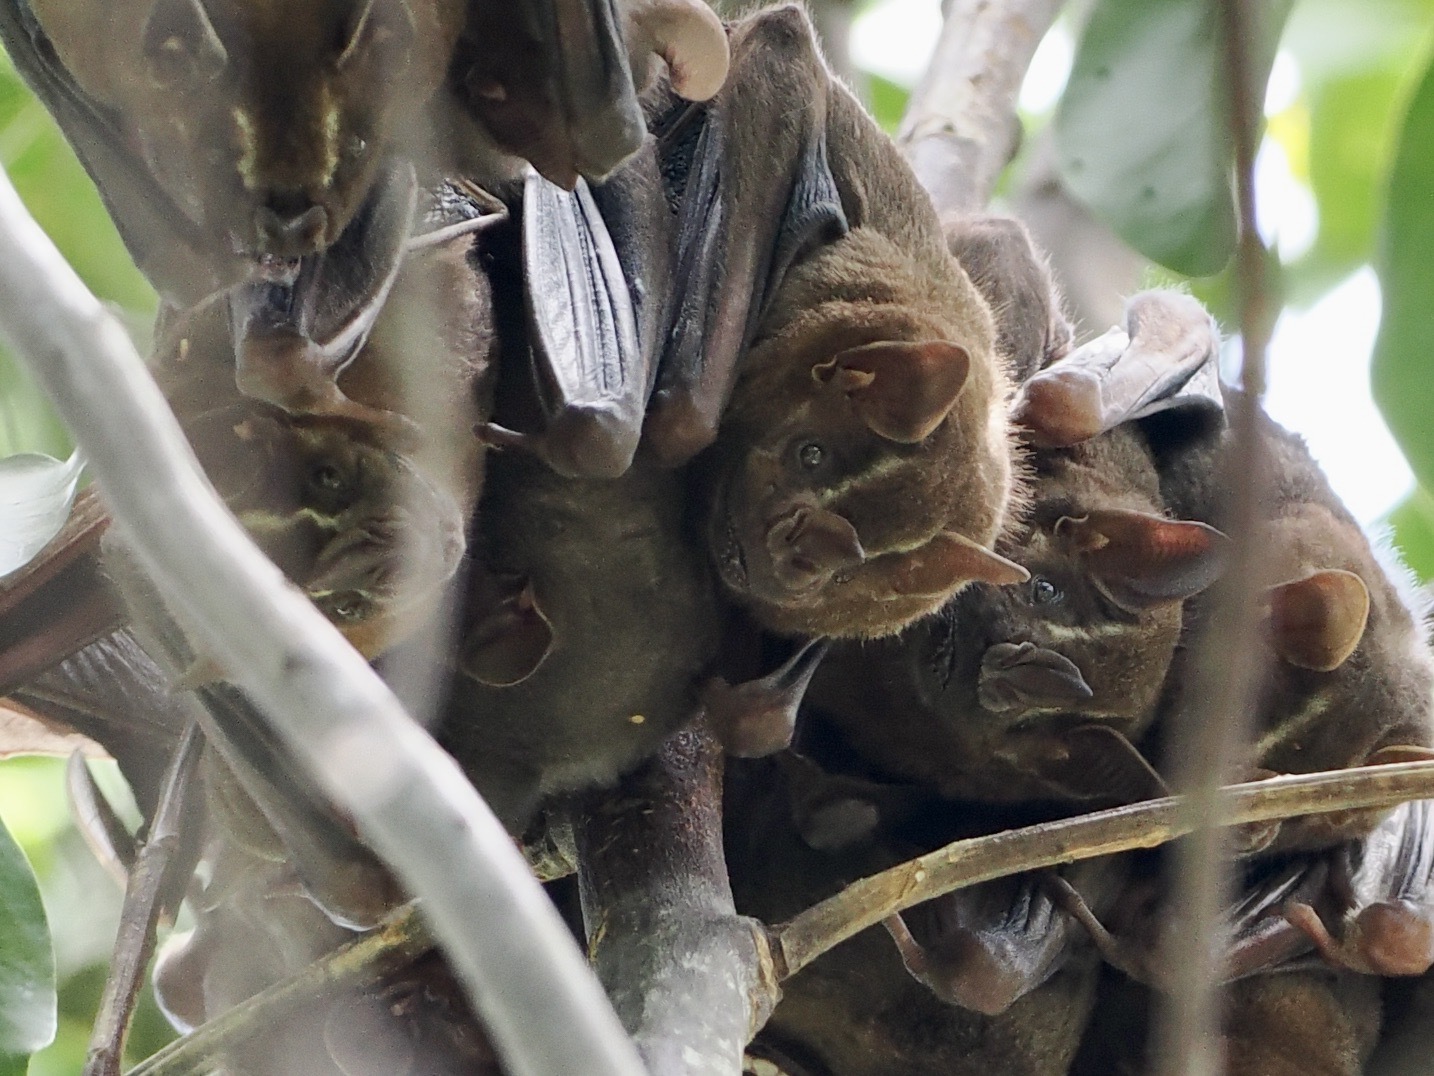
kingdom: Animalia
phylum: Chordata
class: Mammalia
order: Chiroptera
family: Phyllostomidae
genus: Artibeus
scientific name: Artibeus lituratus
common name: Great fruit-eating bat
